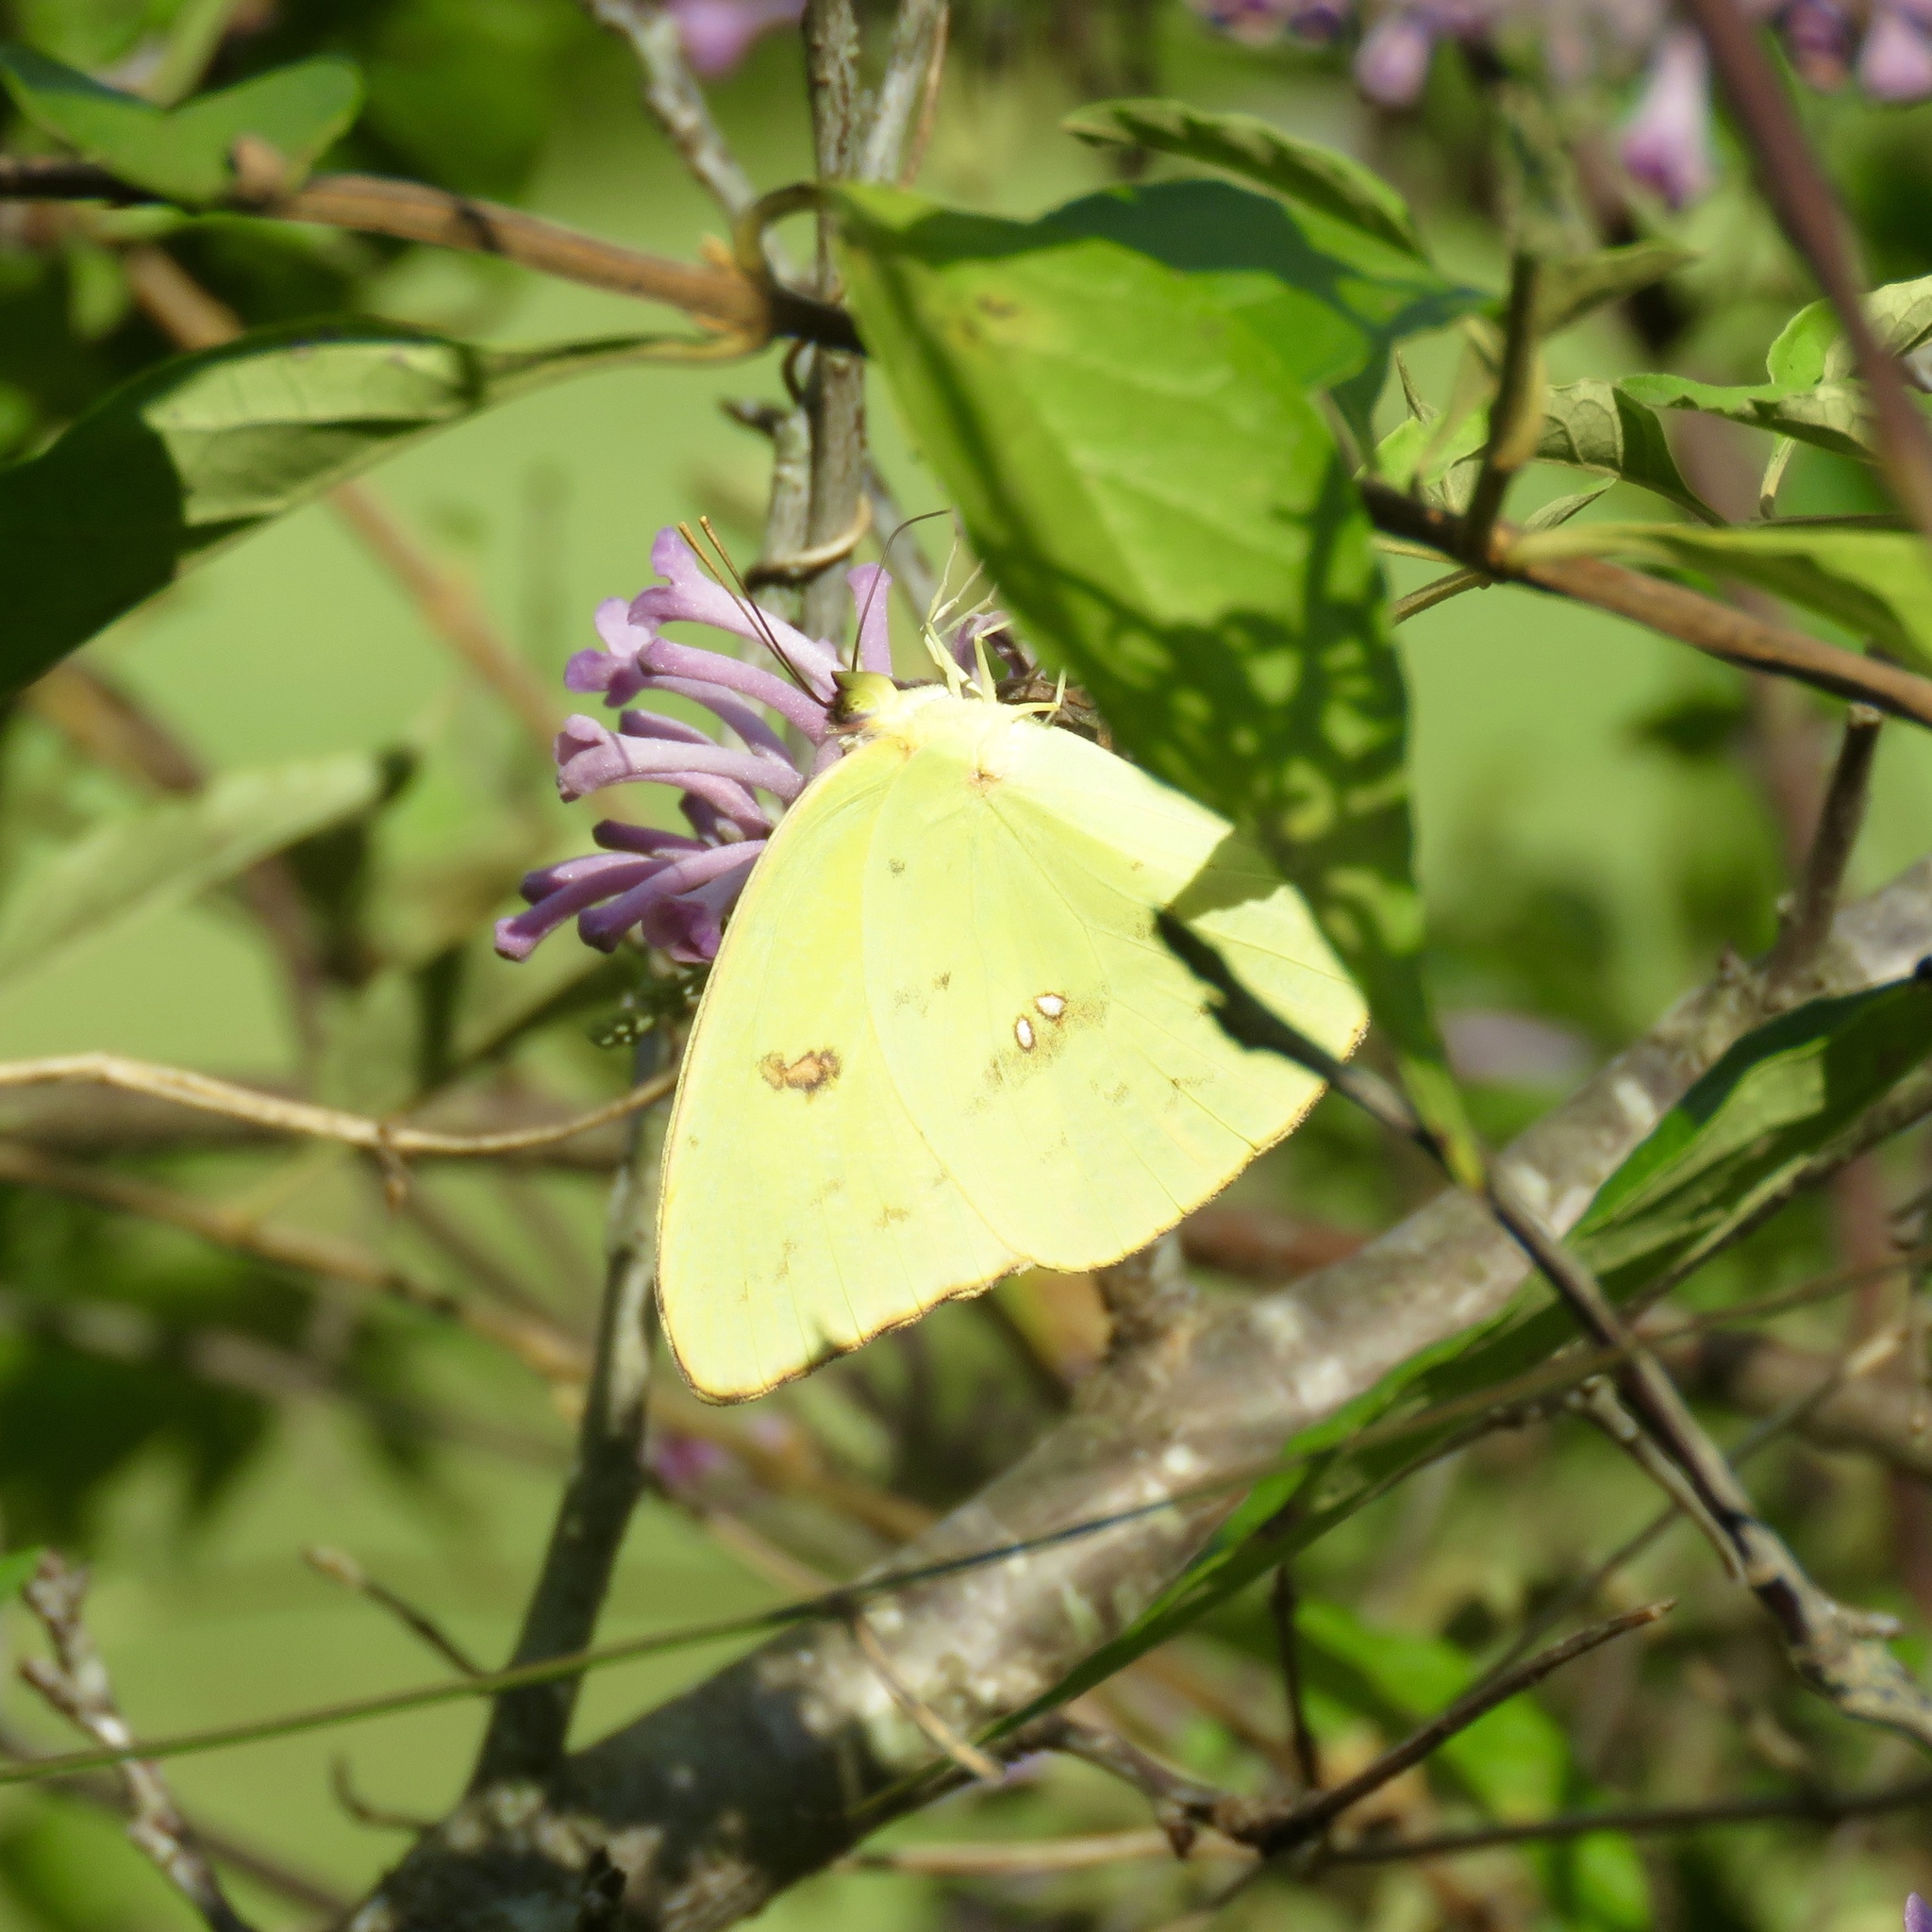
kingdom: Animalia
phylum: Arthropoda
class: Insecta
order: Lepidoptera
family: Pieridae
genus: Phoebis
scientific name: Phoebis sennae
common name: Cloudless sulphur
